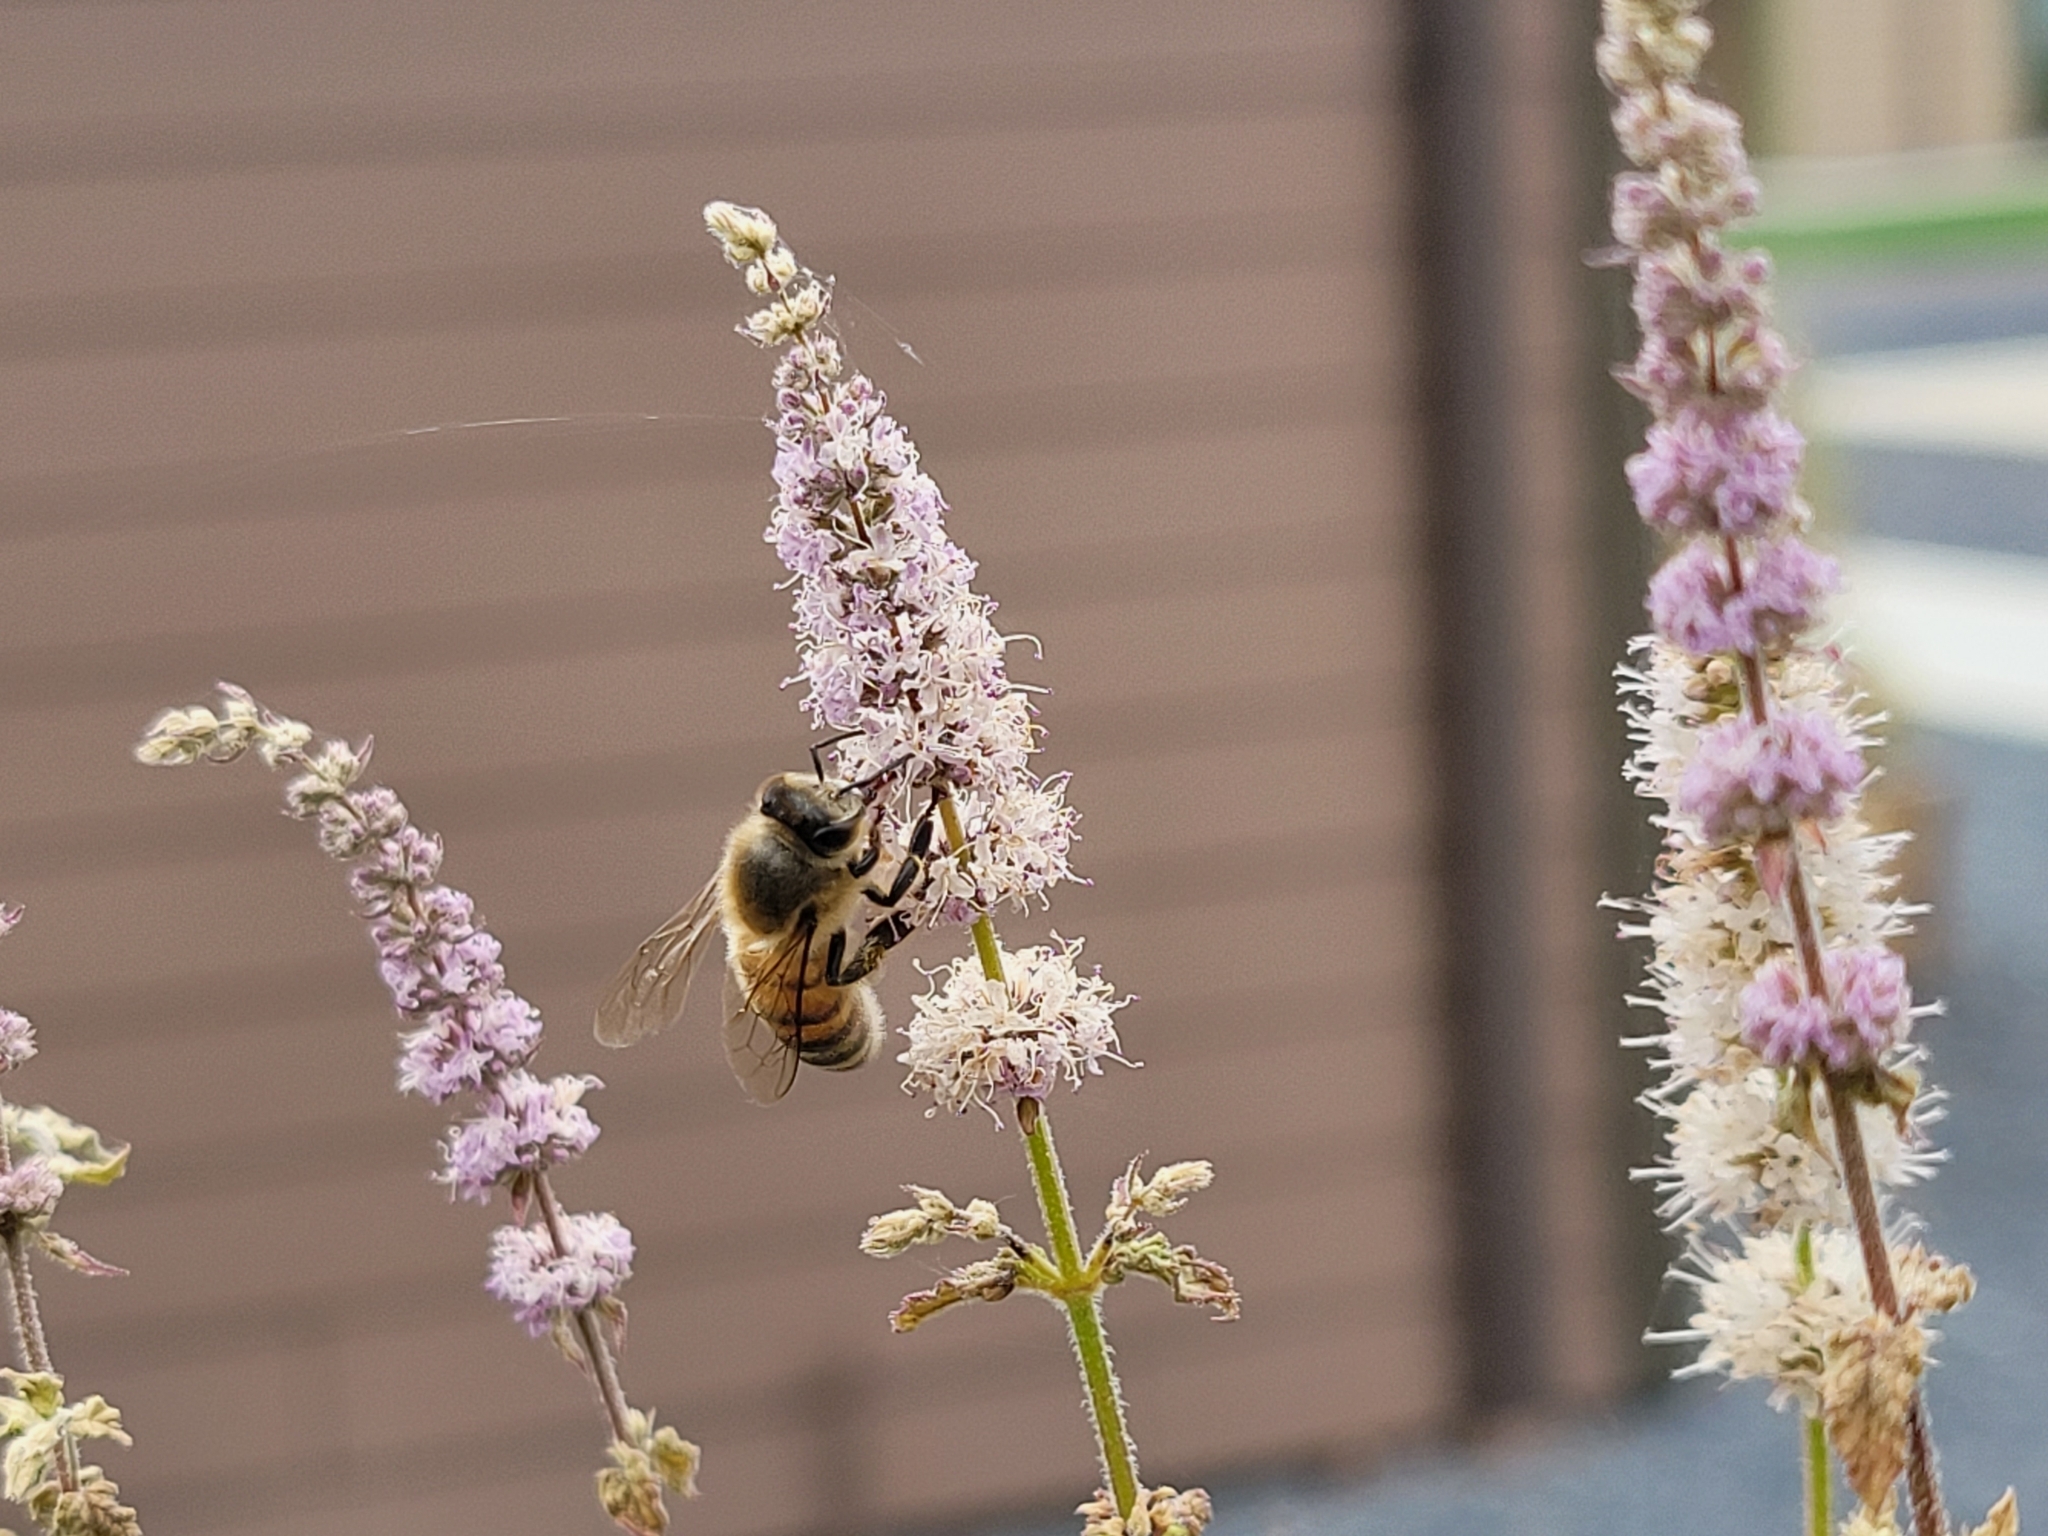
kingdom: Animalia
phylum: Arthropoda
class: Insecta
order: Hymenoptera
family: Apidae
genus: Apis
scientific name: Apis mellifera
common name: Honey bee
